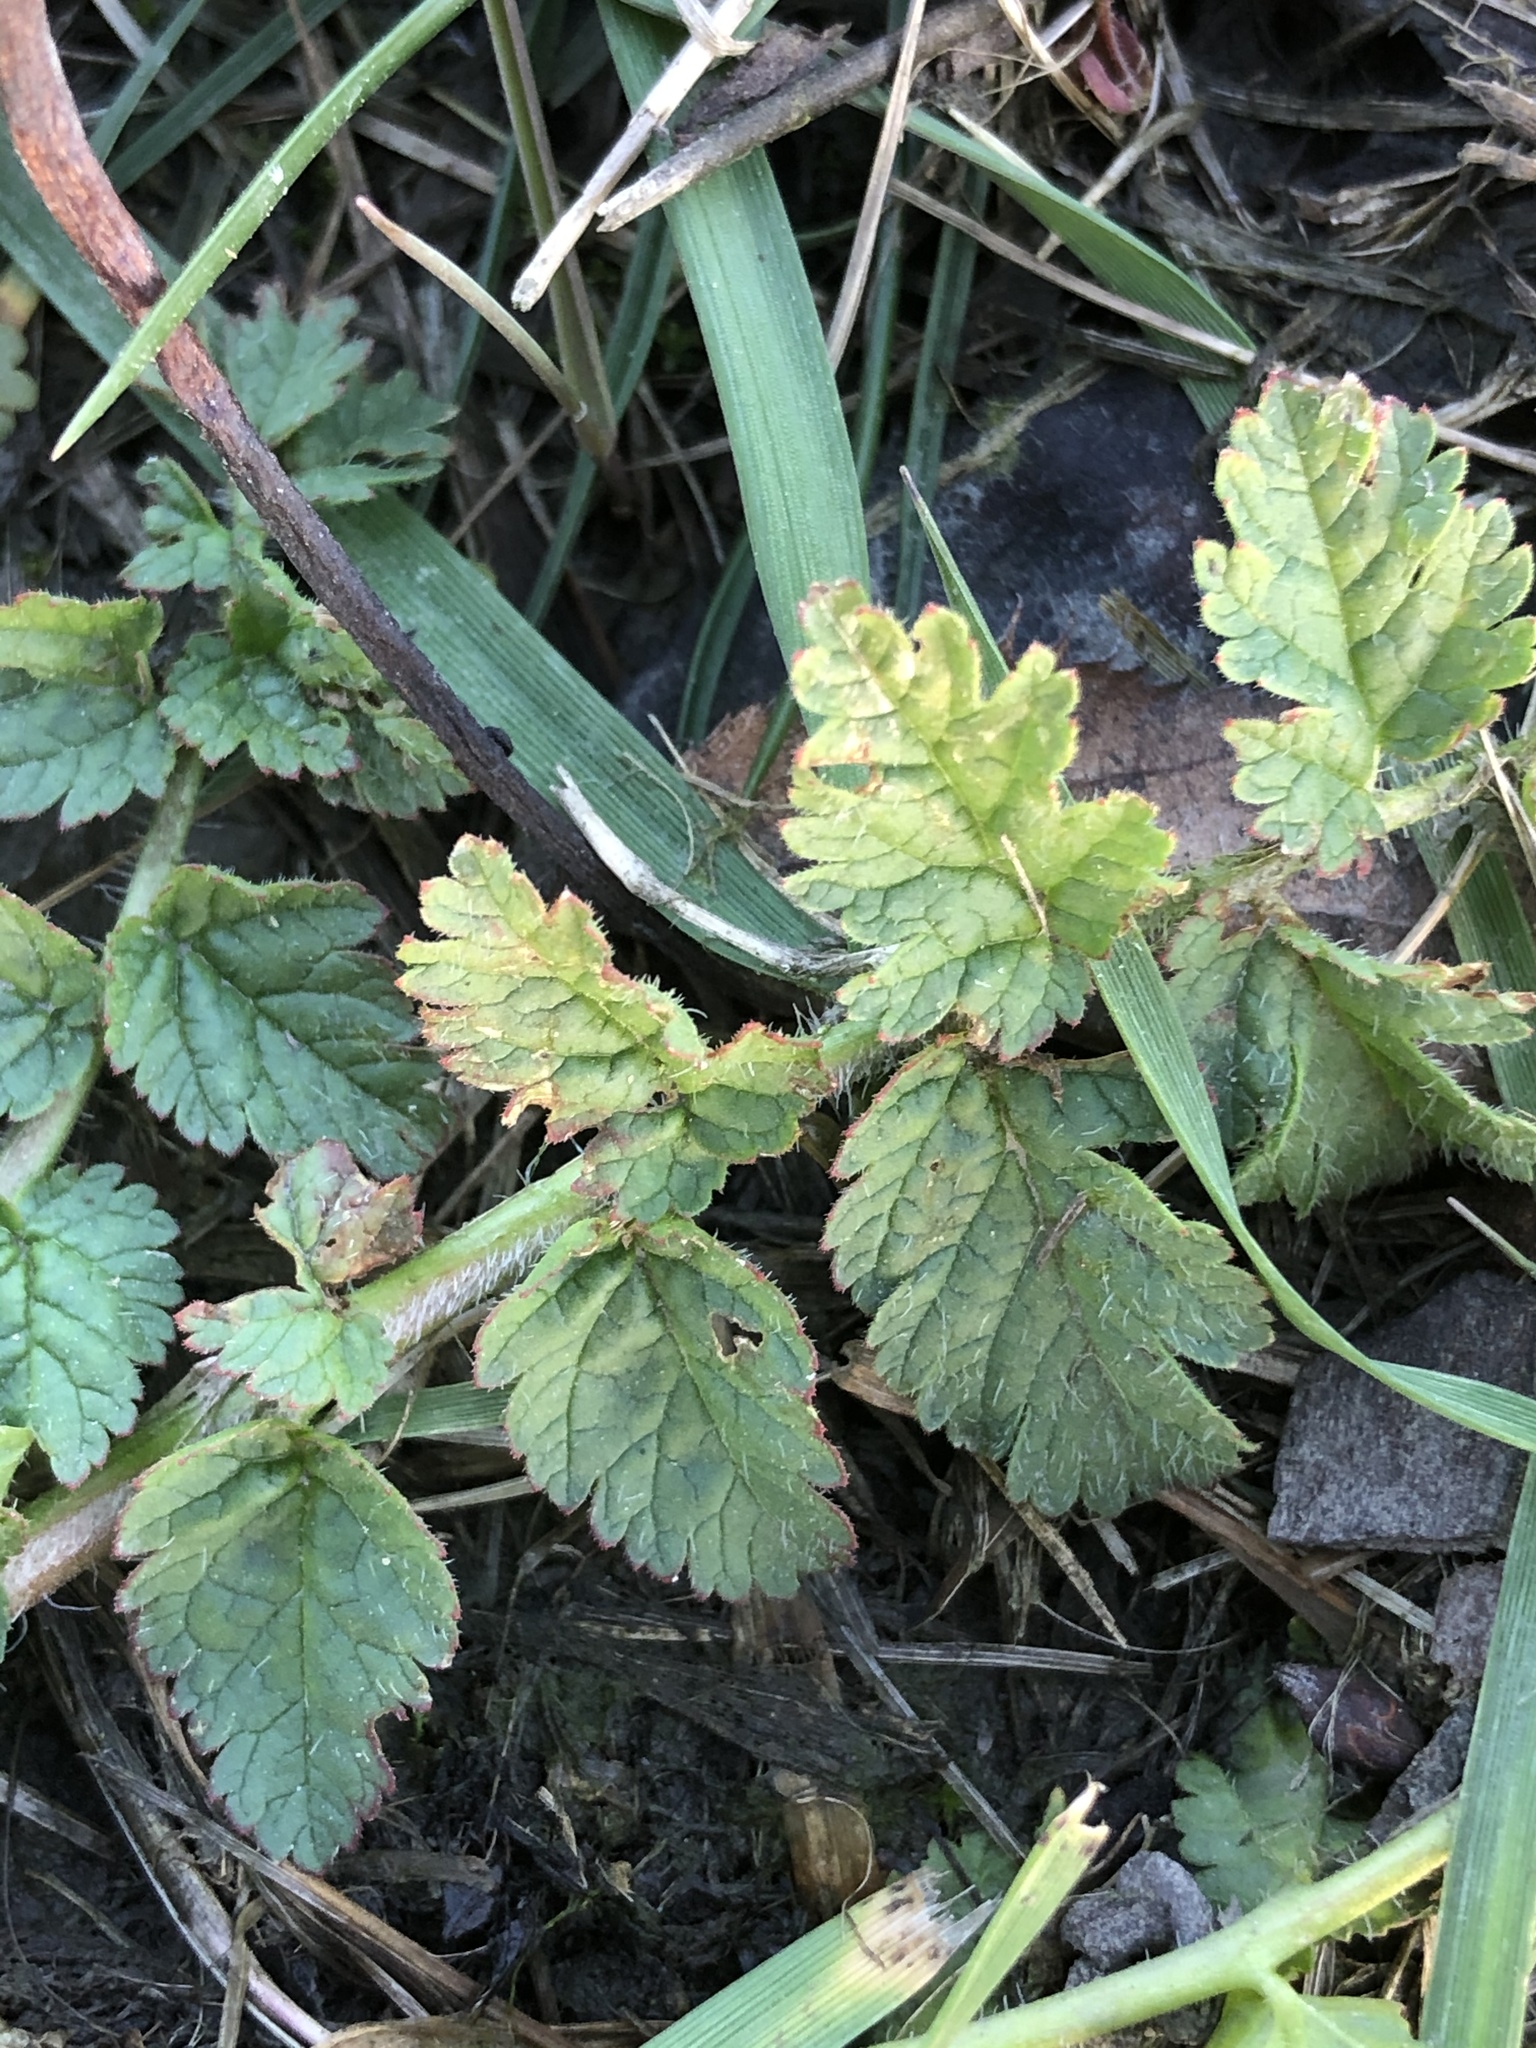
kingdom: Plantae
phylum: Tracheophyta
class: Magnoliopsida
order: Geraniales
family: Geraniaceae
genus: Erodium
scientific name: Erodium moschatum
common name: Musk stork's-bill
